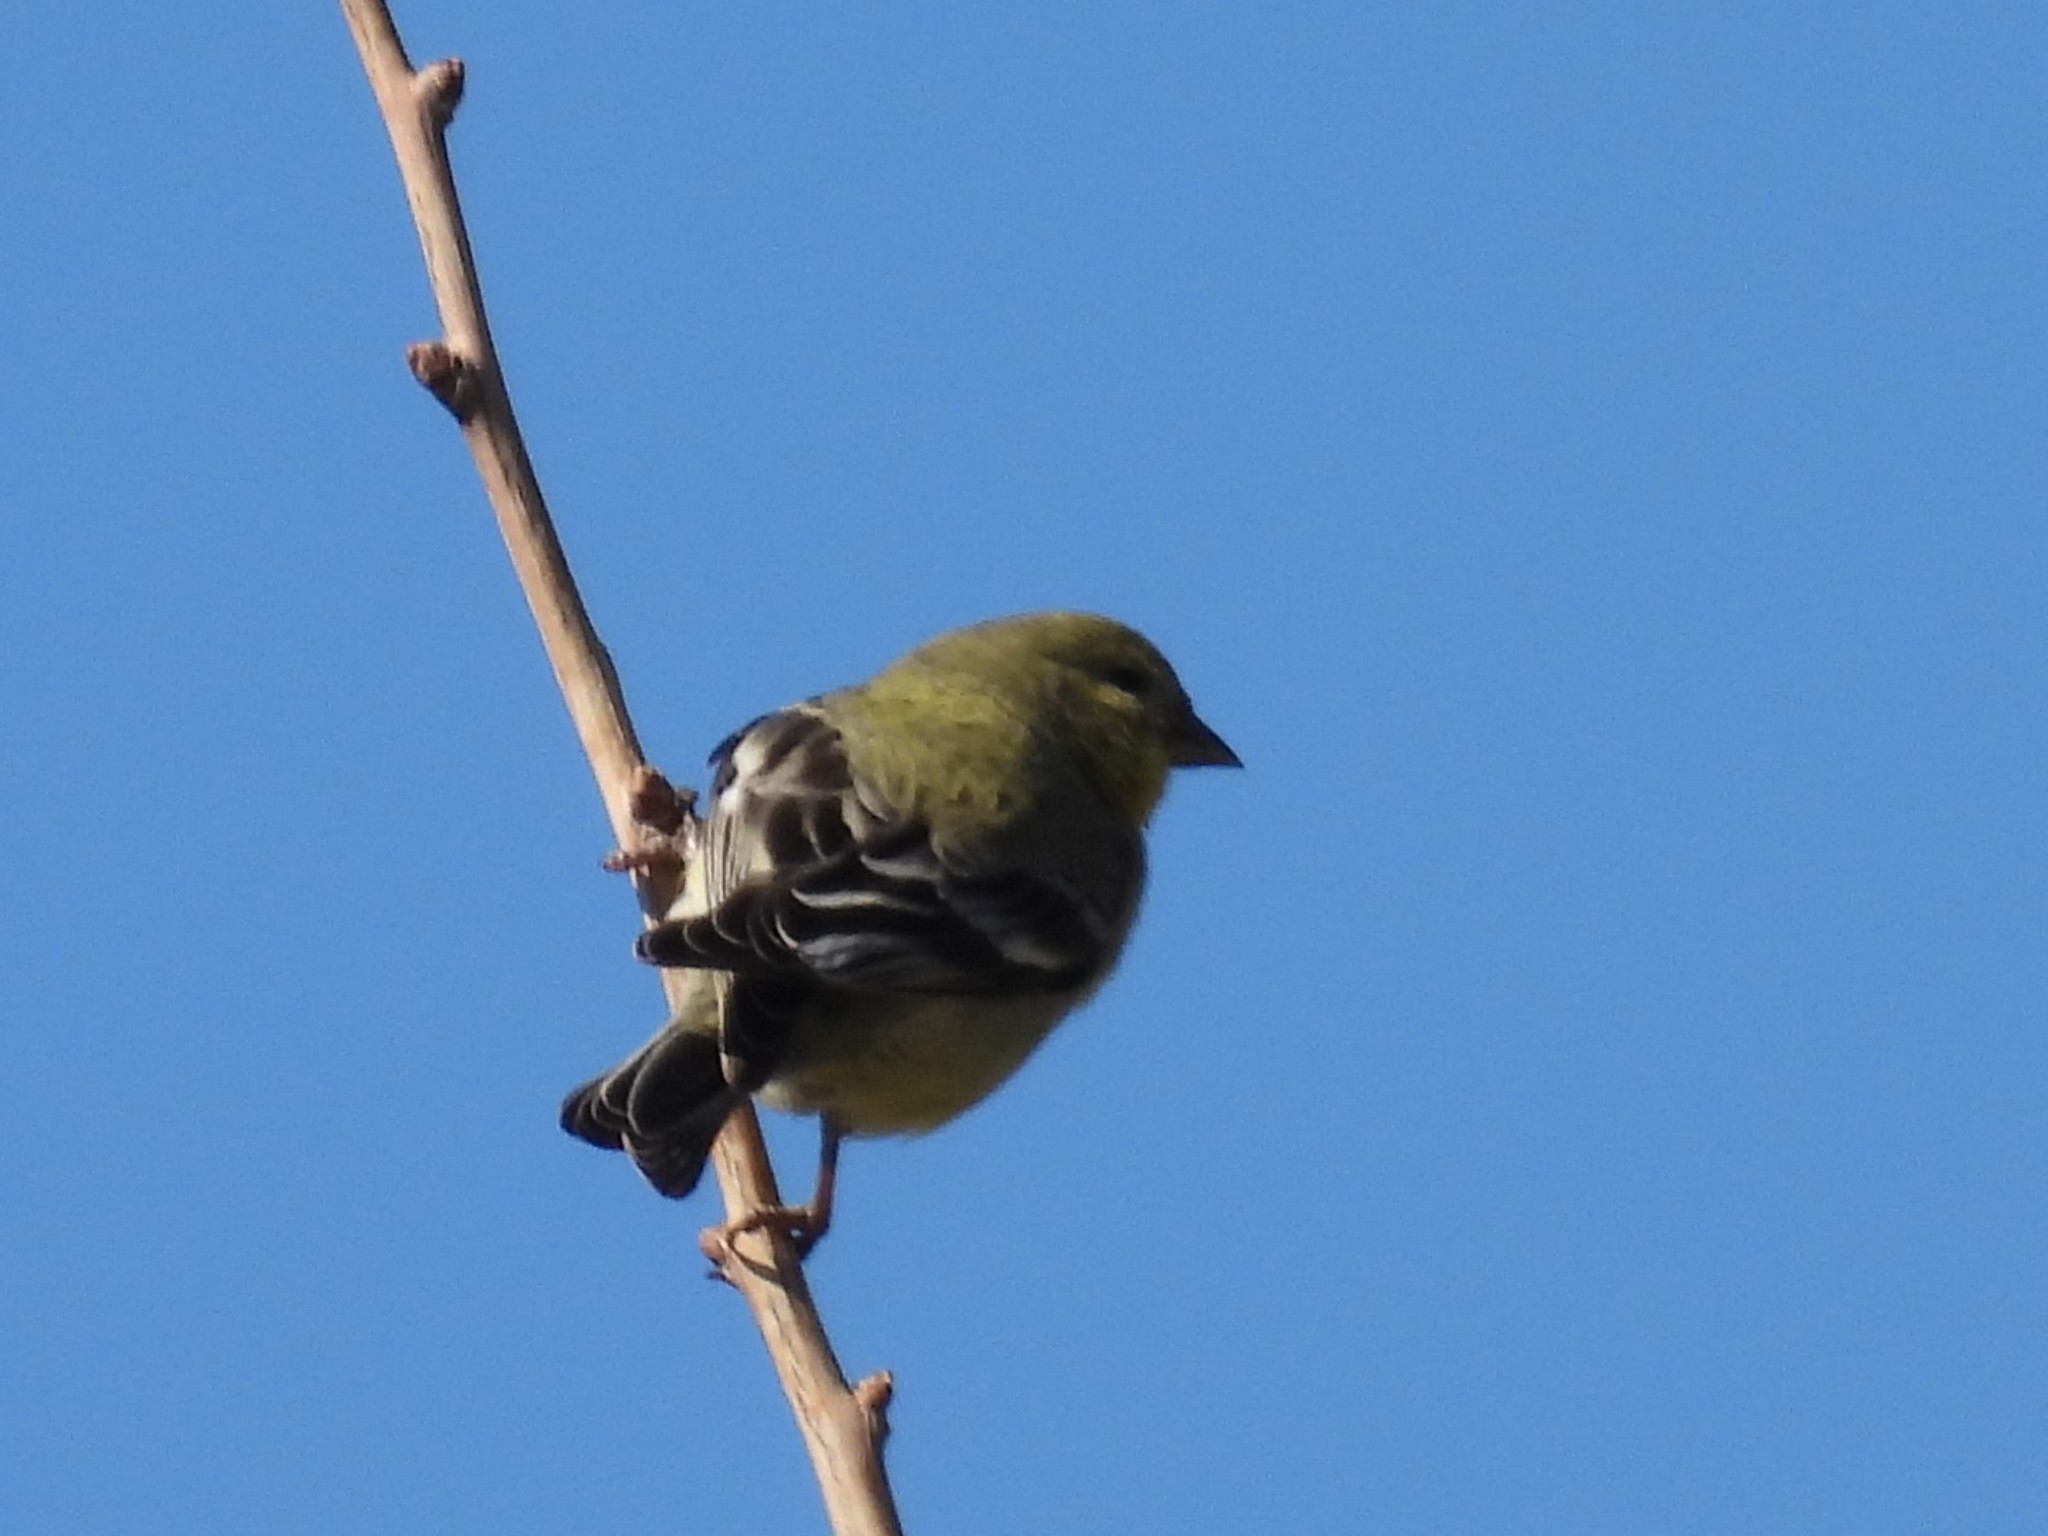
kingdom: Animalia
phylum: Chordata
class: Aves
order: Passeriformes
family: Fringillidae
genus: Spinus
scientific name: Spinus psaltria
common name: Lesser goldfinch
